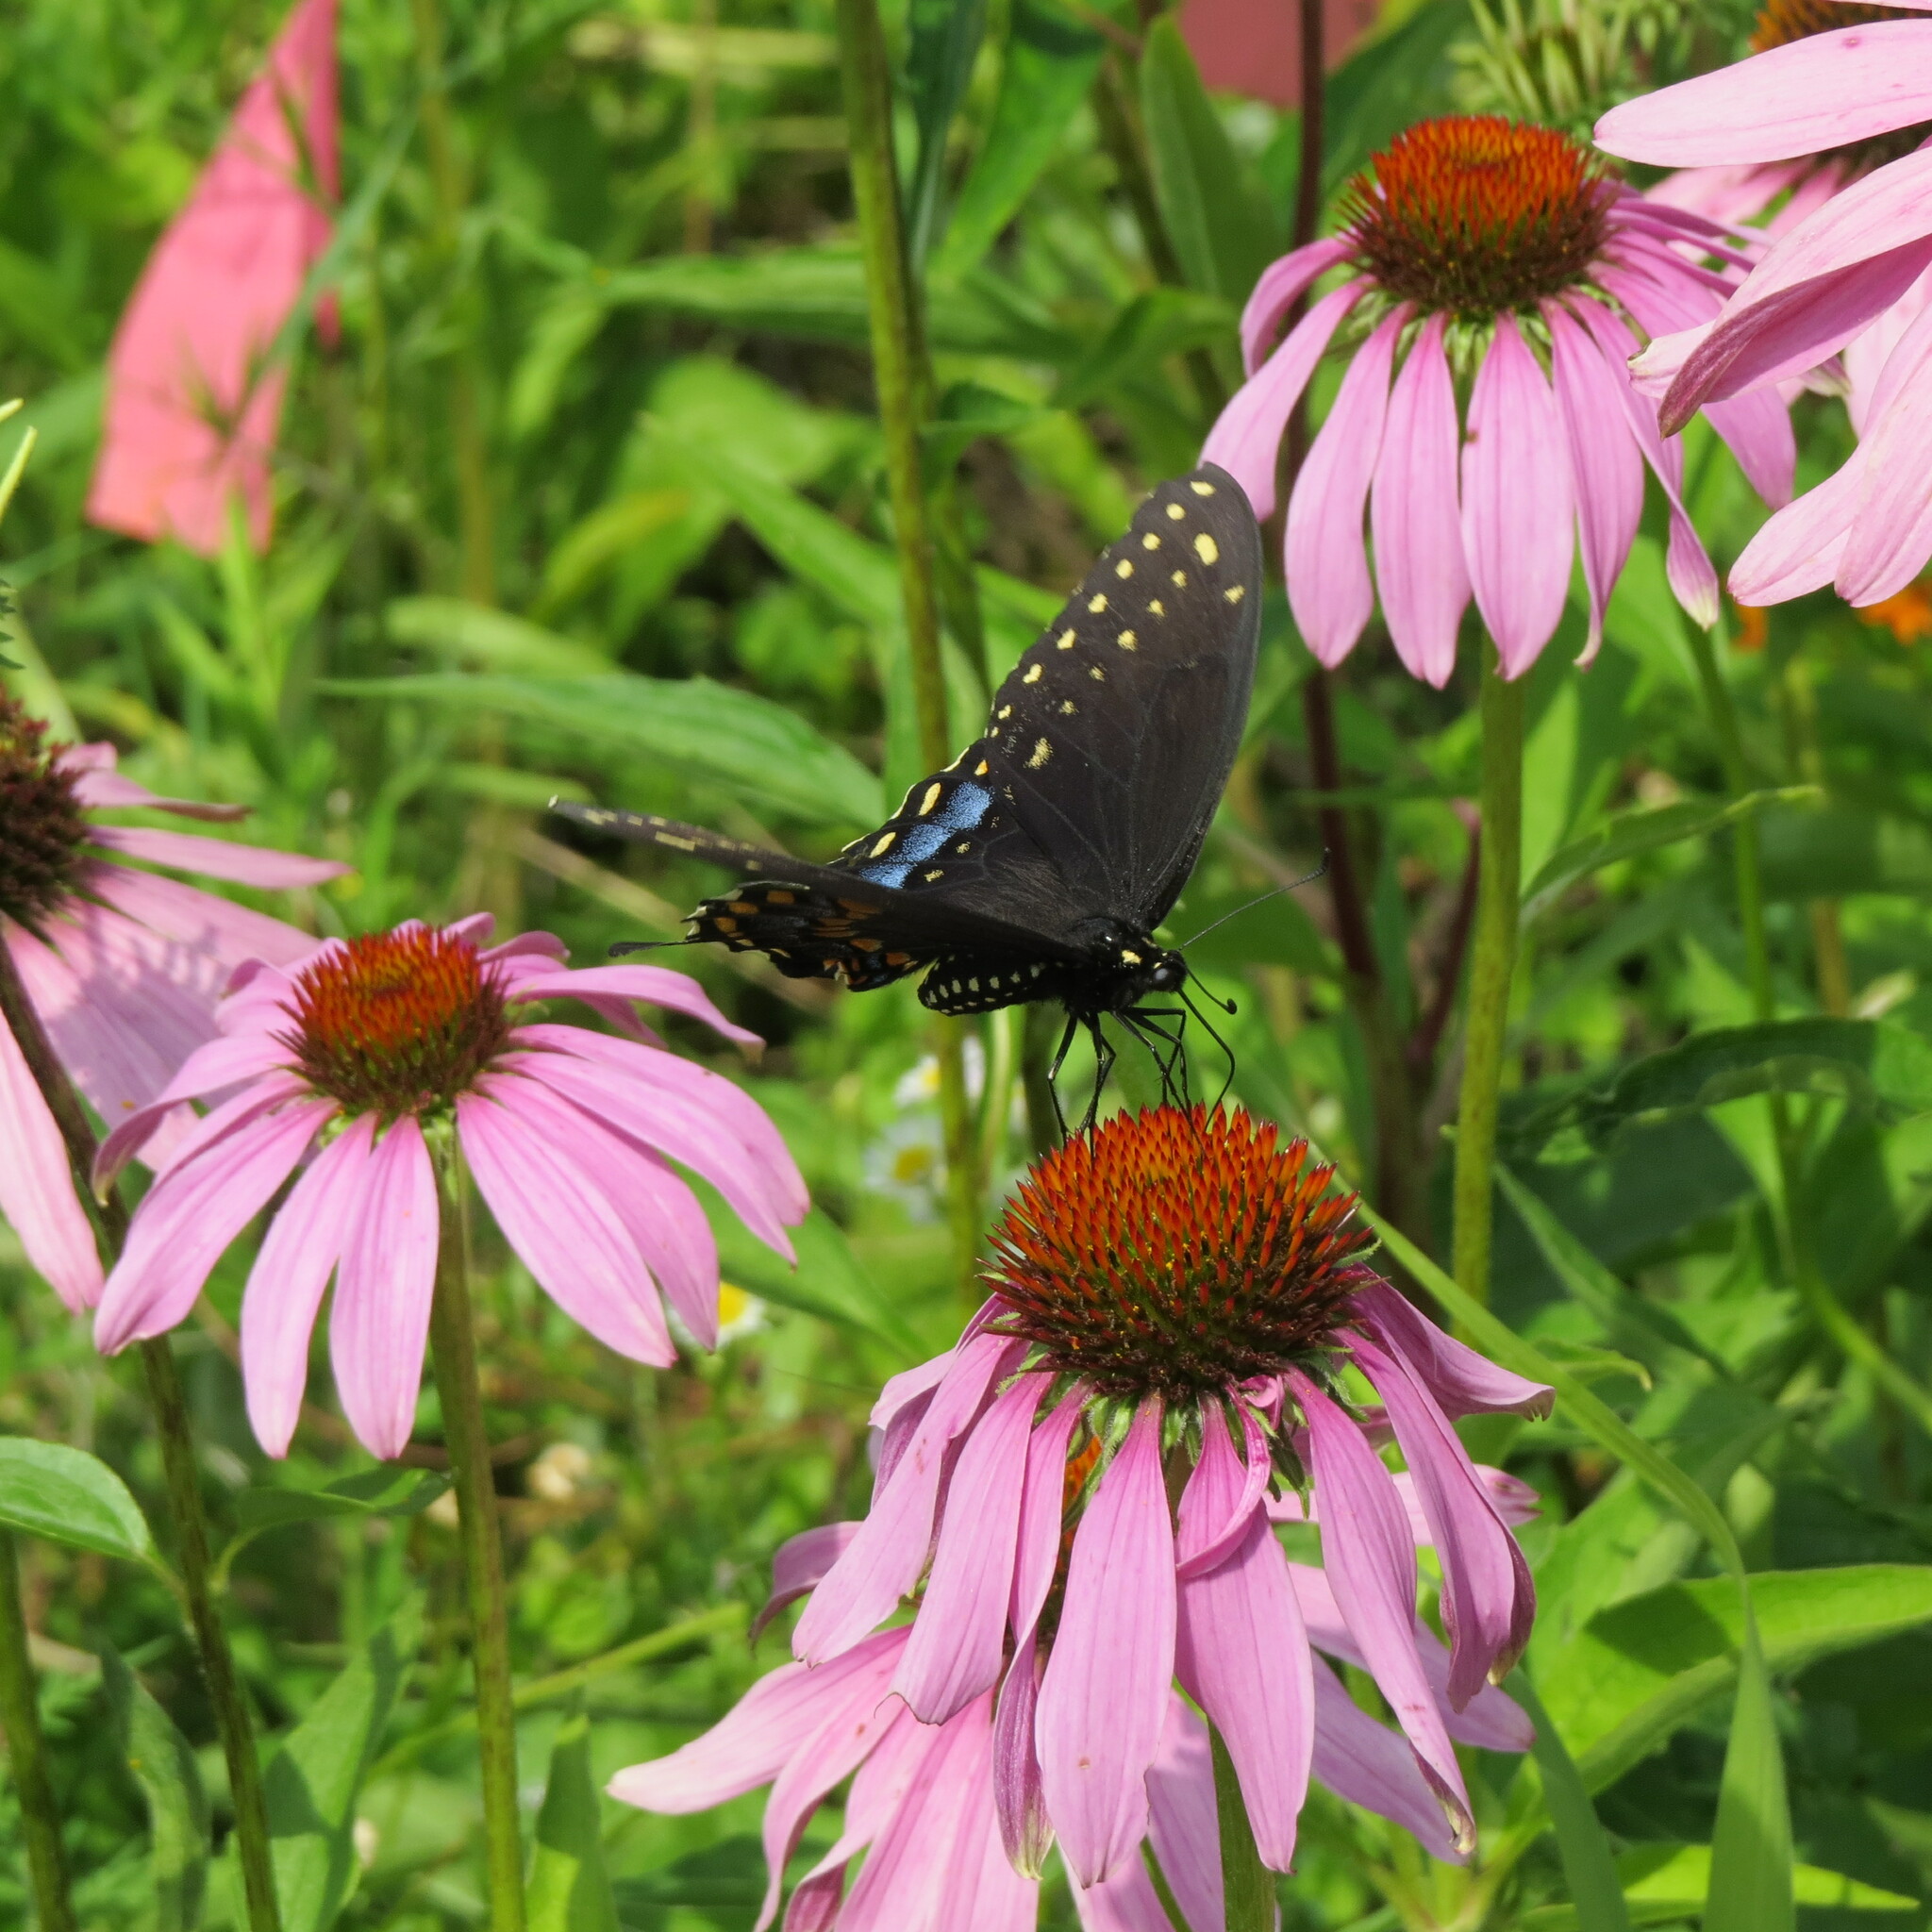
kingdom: Animalia
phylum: Arthropoda
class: Insecta
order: Lepidoptera
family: Papilionidae
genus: Papilio
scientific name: Papilio polyxenes
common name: Black swallowtail
